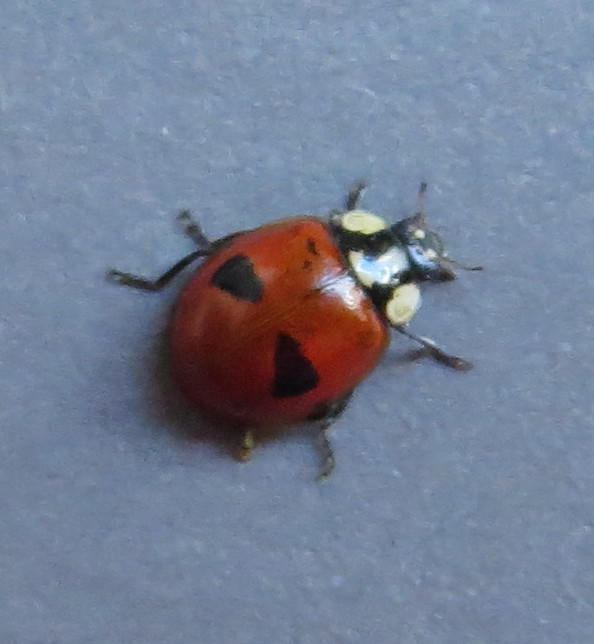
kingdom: Animalia
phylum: Arthropoda
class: Insecta
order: Coleoptera
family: Coccinellidae
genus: Adalia
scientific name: Adalia bipunctata
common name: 2-spot ladybird
